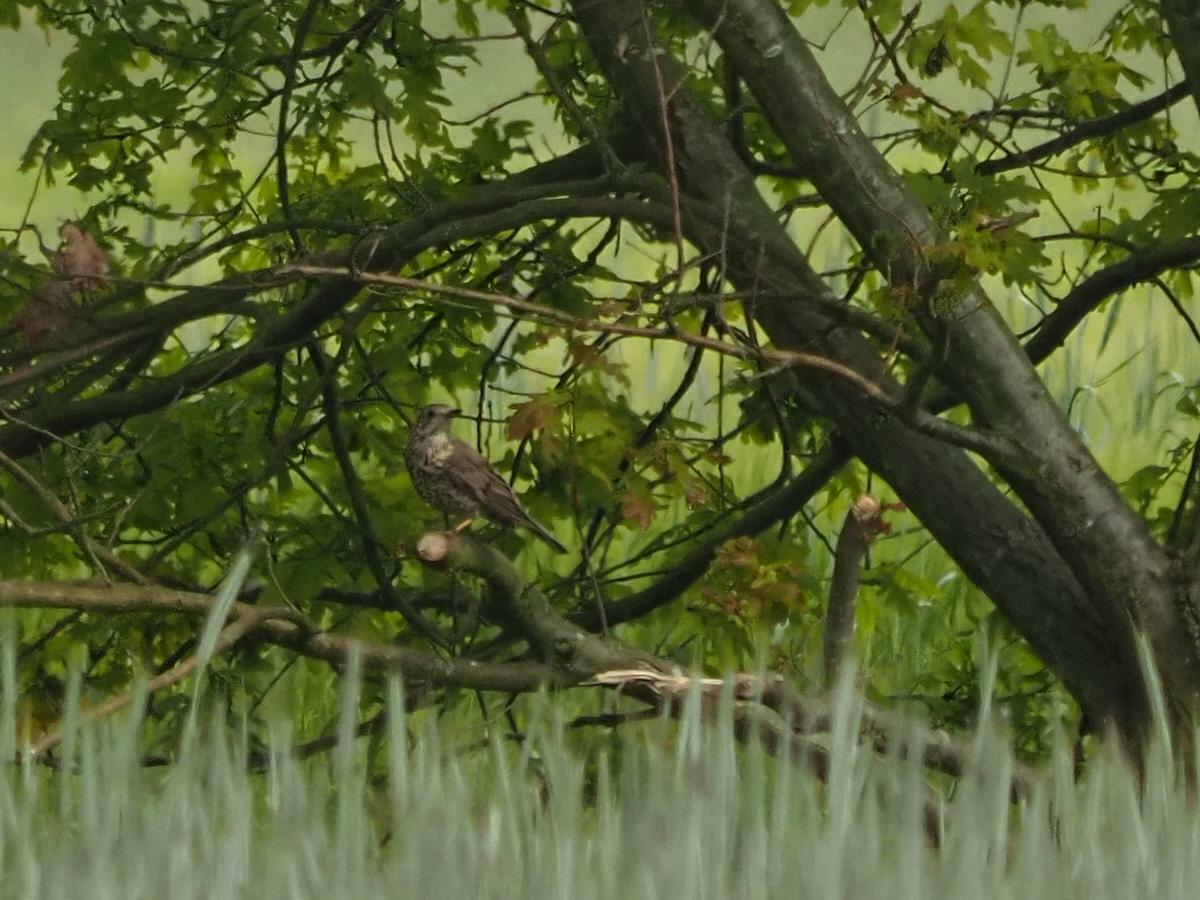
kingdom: Animalia
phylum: Chordata
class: Aves
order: Passeriformes
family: Turdidae
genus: Turdus
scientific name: Turdus viscivorus
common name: Mistle thrush
